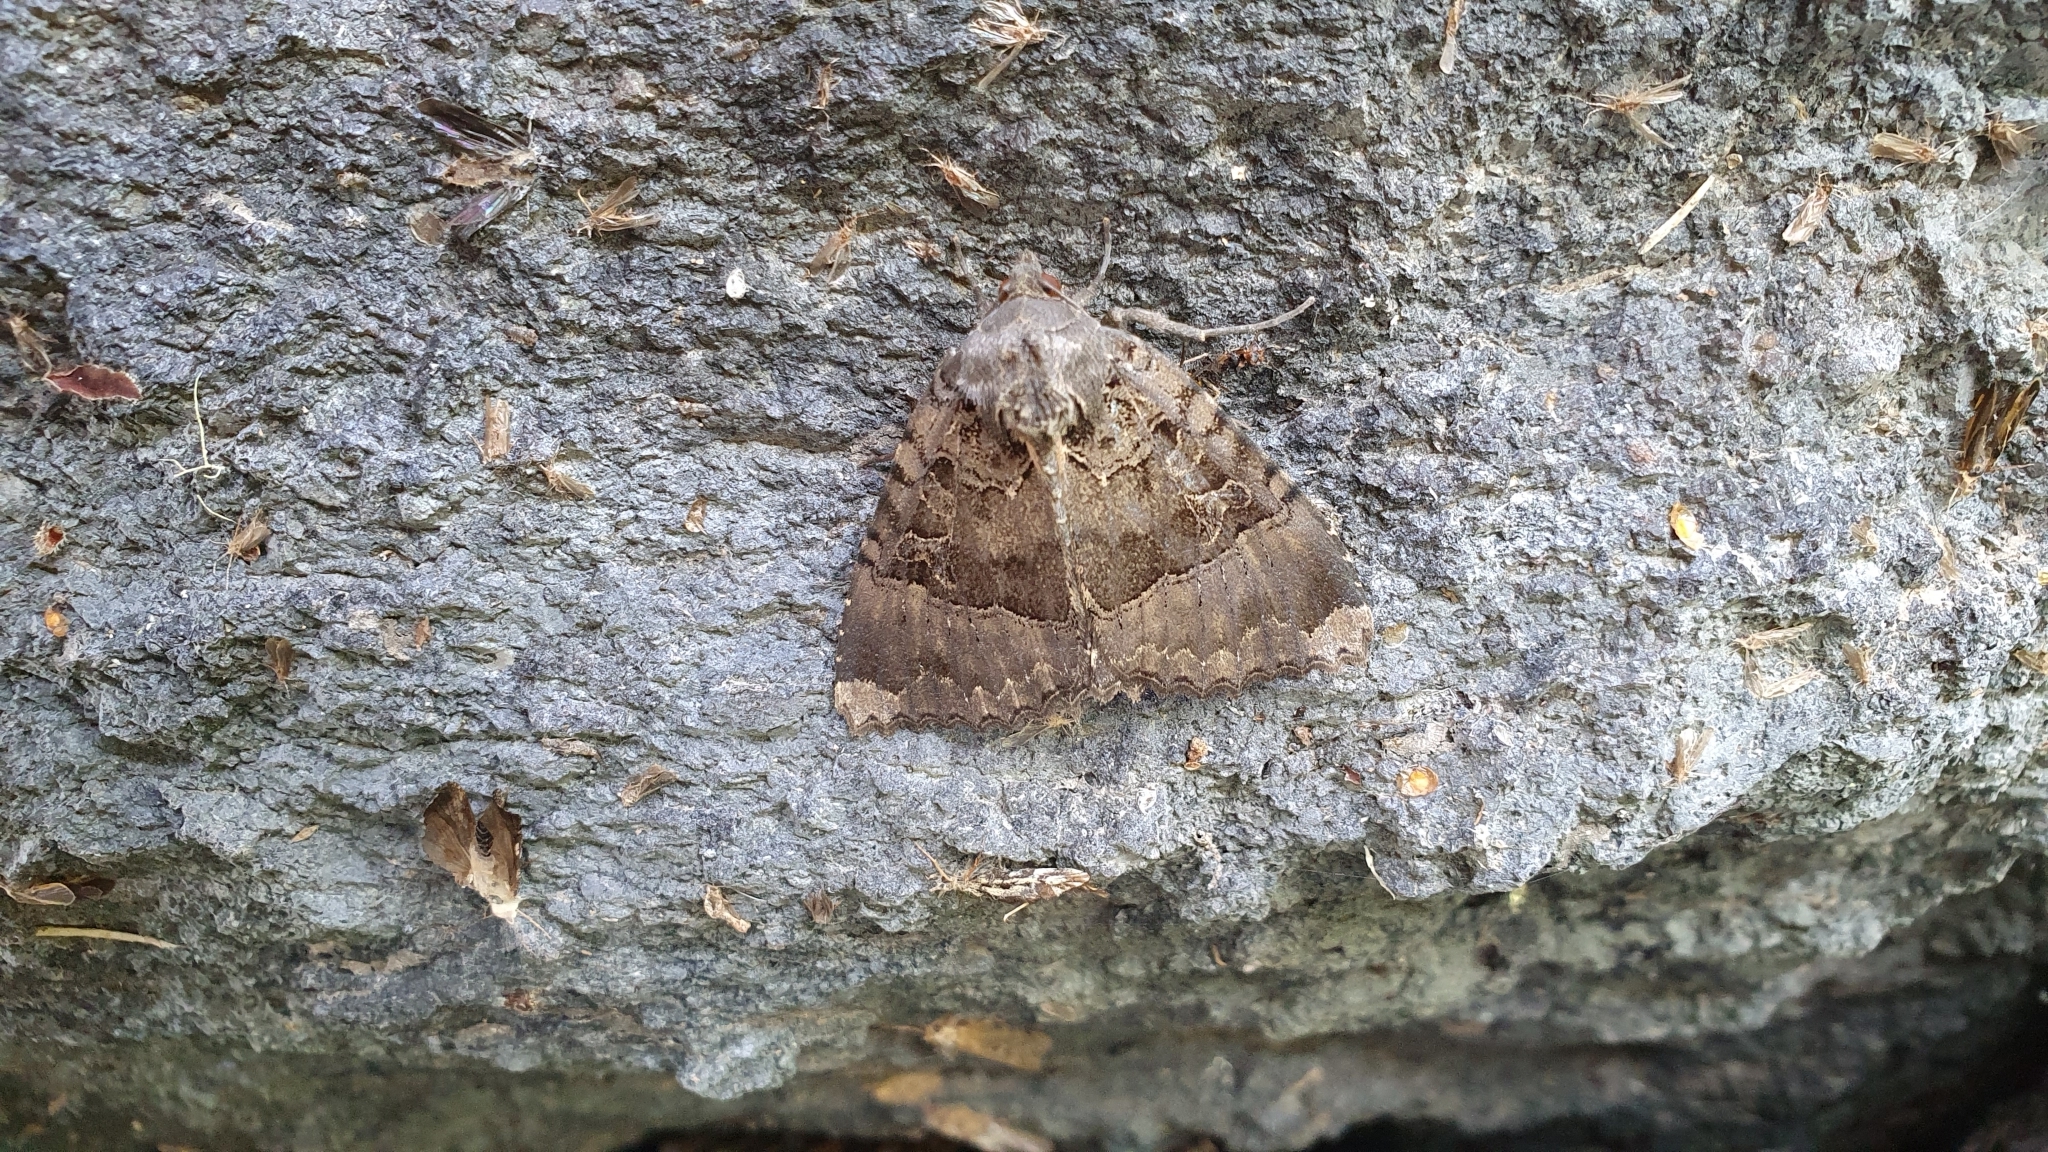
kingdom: Animalia
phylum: Arthropoda
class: Insecta
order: Lepidoptera
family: Noctuidae
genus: Mormo
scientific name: Mormo maura
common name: Old lady
